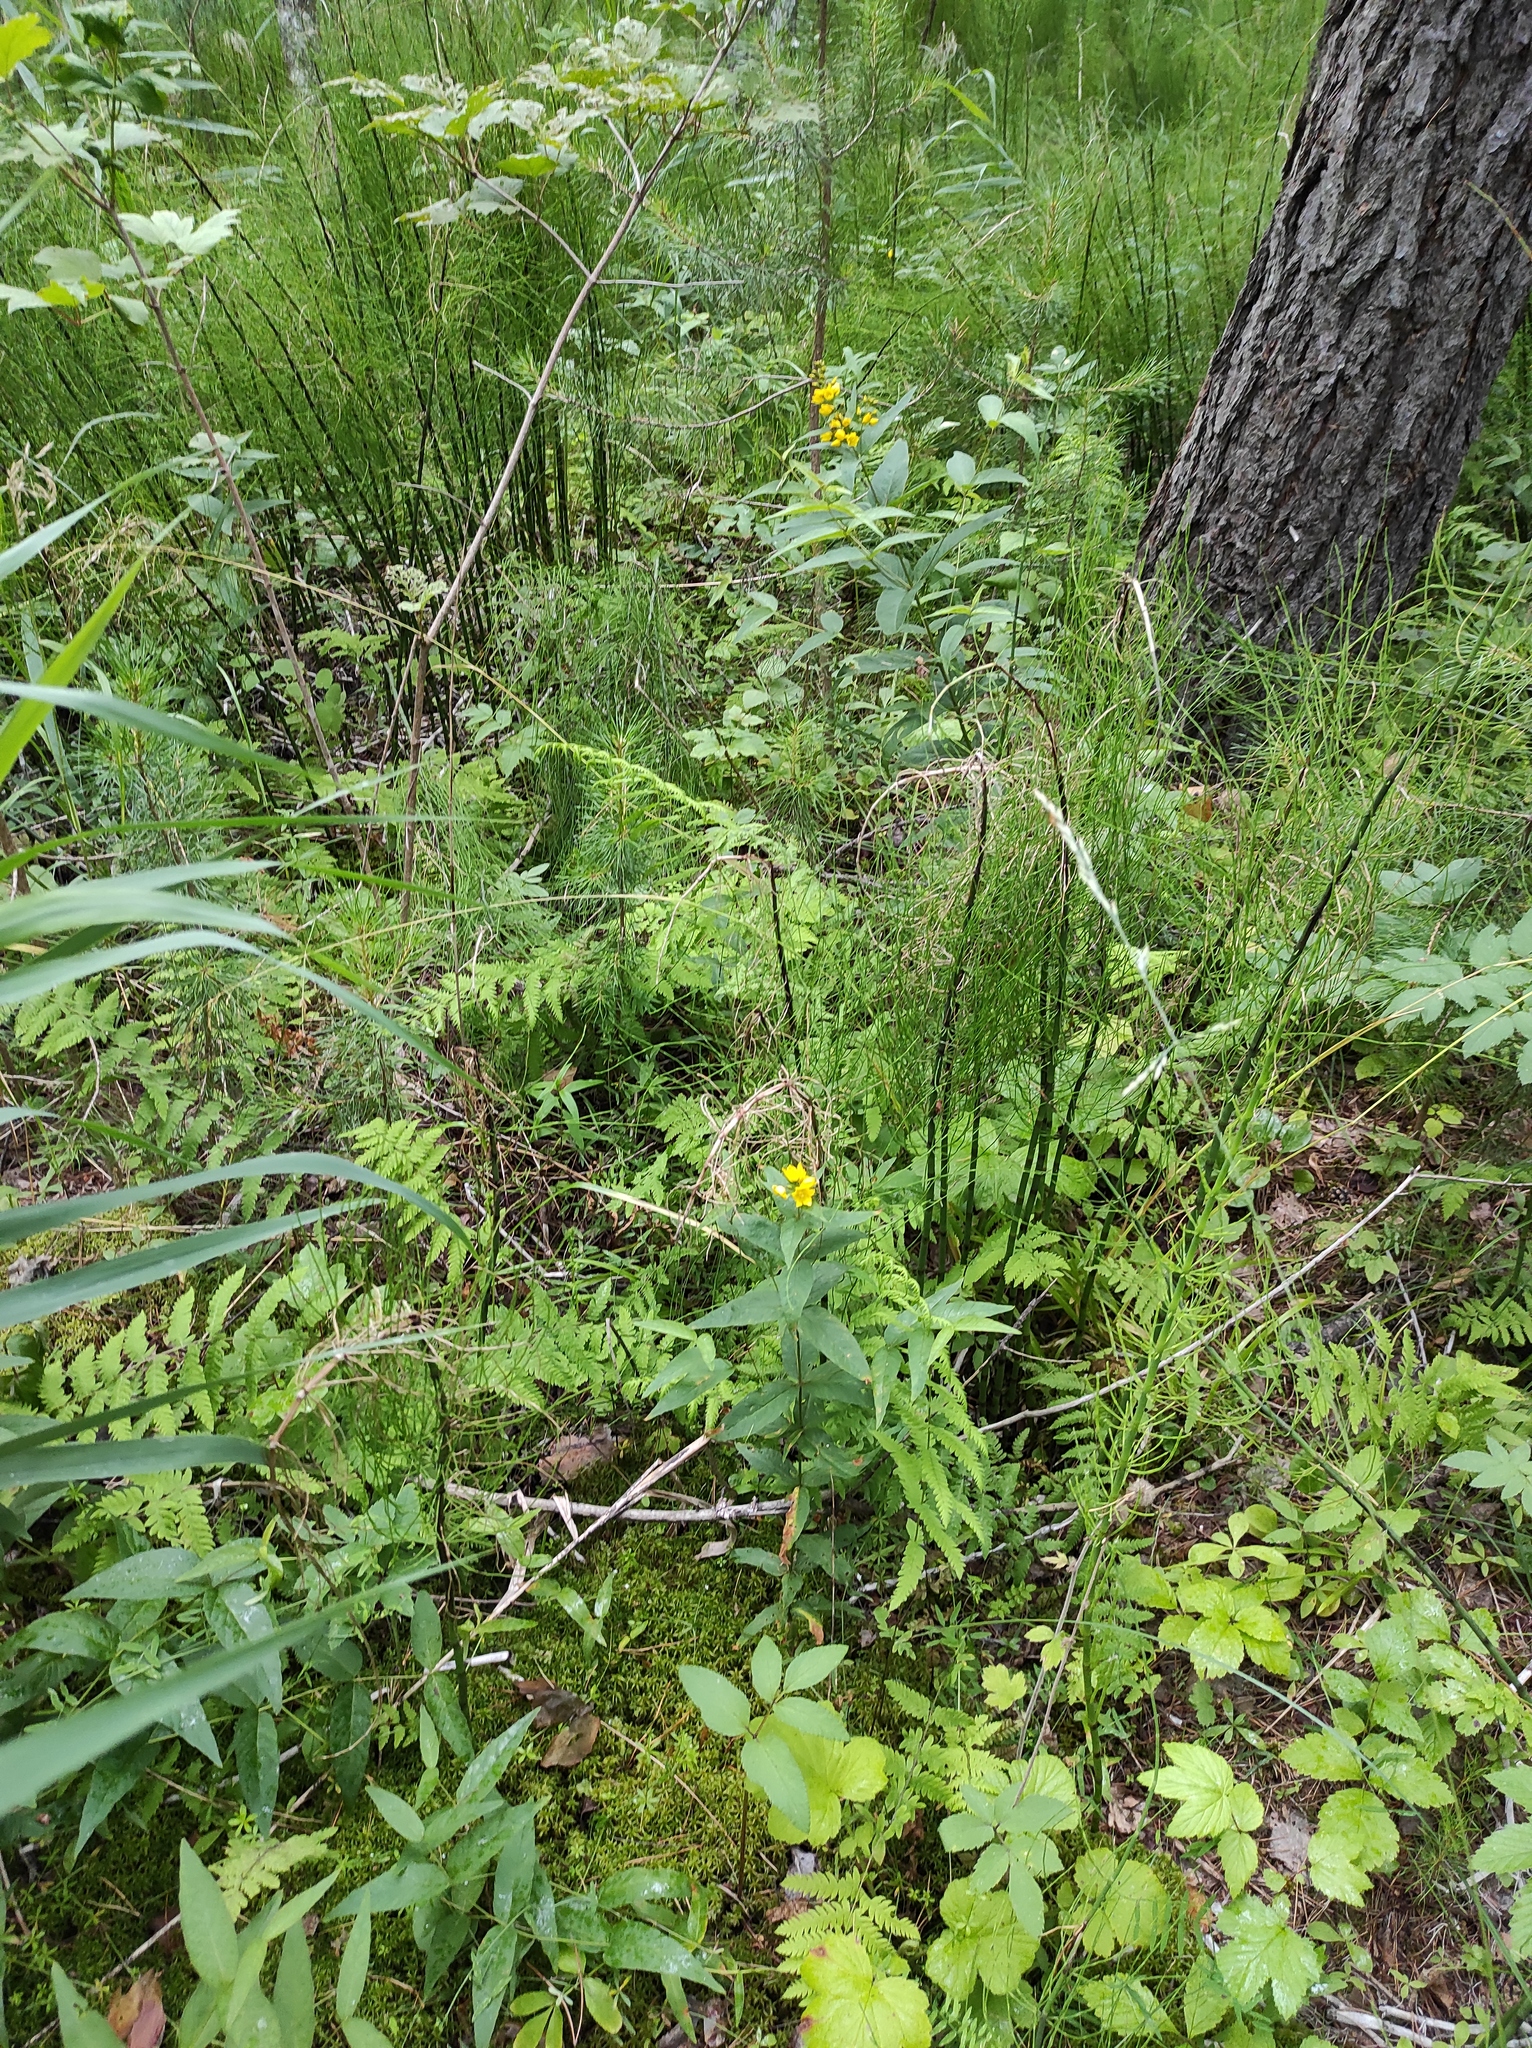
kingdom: Plantae
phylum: Tracheophyta
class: Pinopsida
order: Pinales
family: Pinaceae
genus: Pinus
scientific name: Pinus sylvestris
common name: Scots pine
